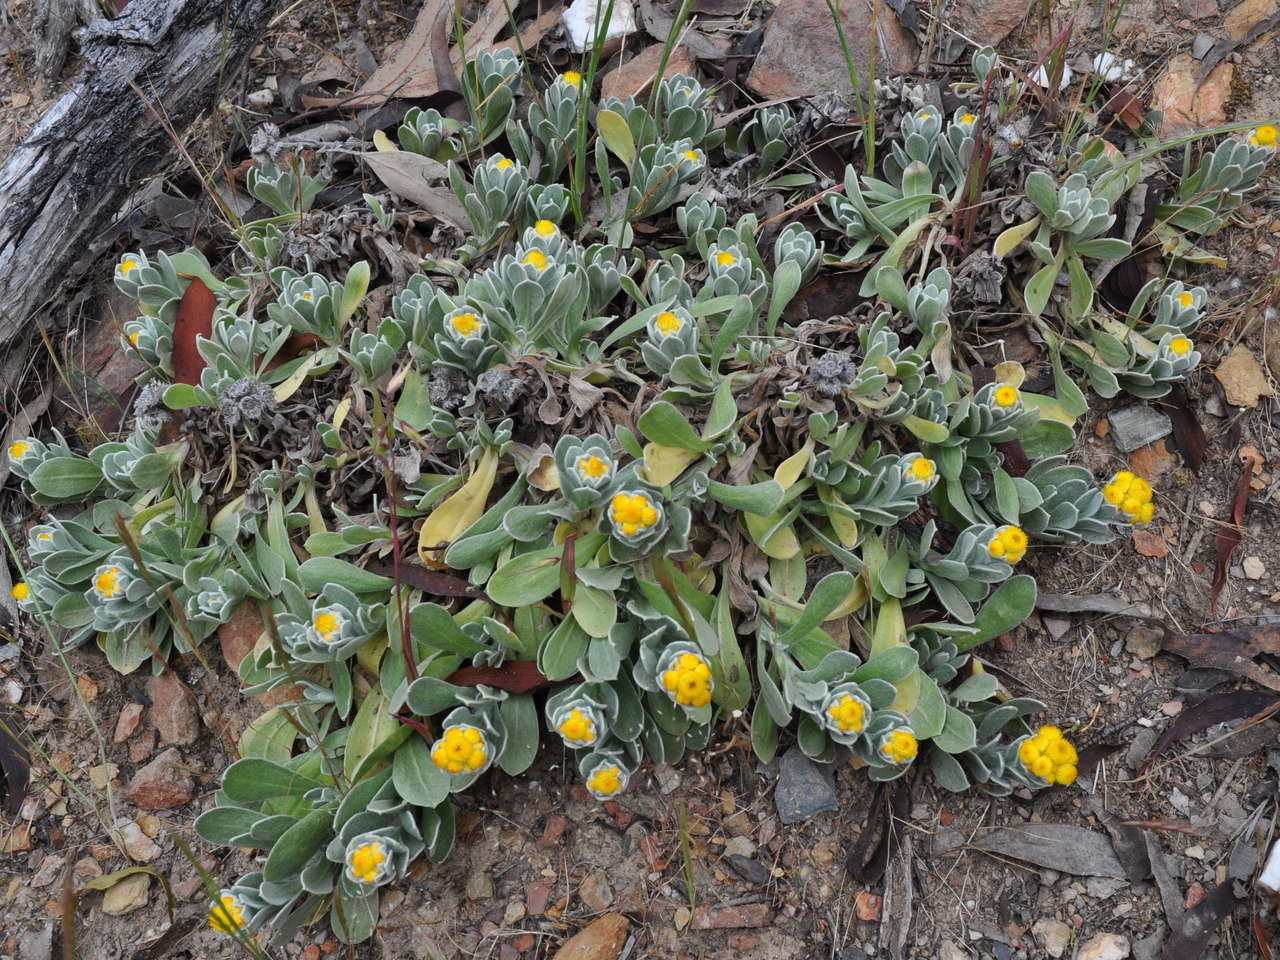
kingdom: Plantae
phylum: Tracheophyta
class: Magnoliopsida
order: Asterales
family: Asteraceae
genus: Chrysocephalum
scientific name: Chrysocephalum apiculatum
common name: Common everlasting
